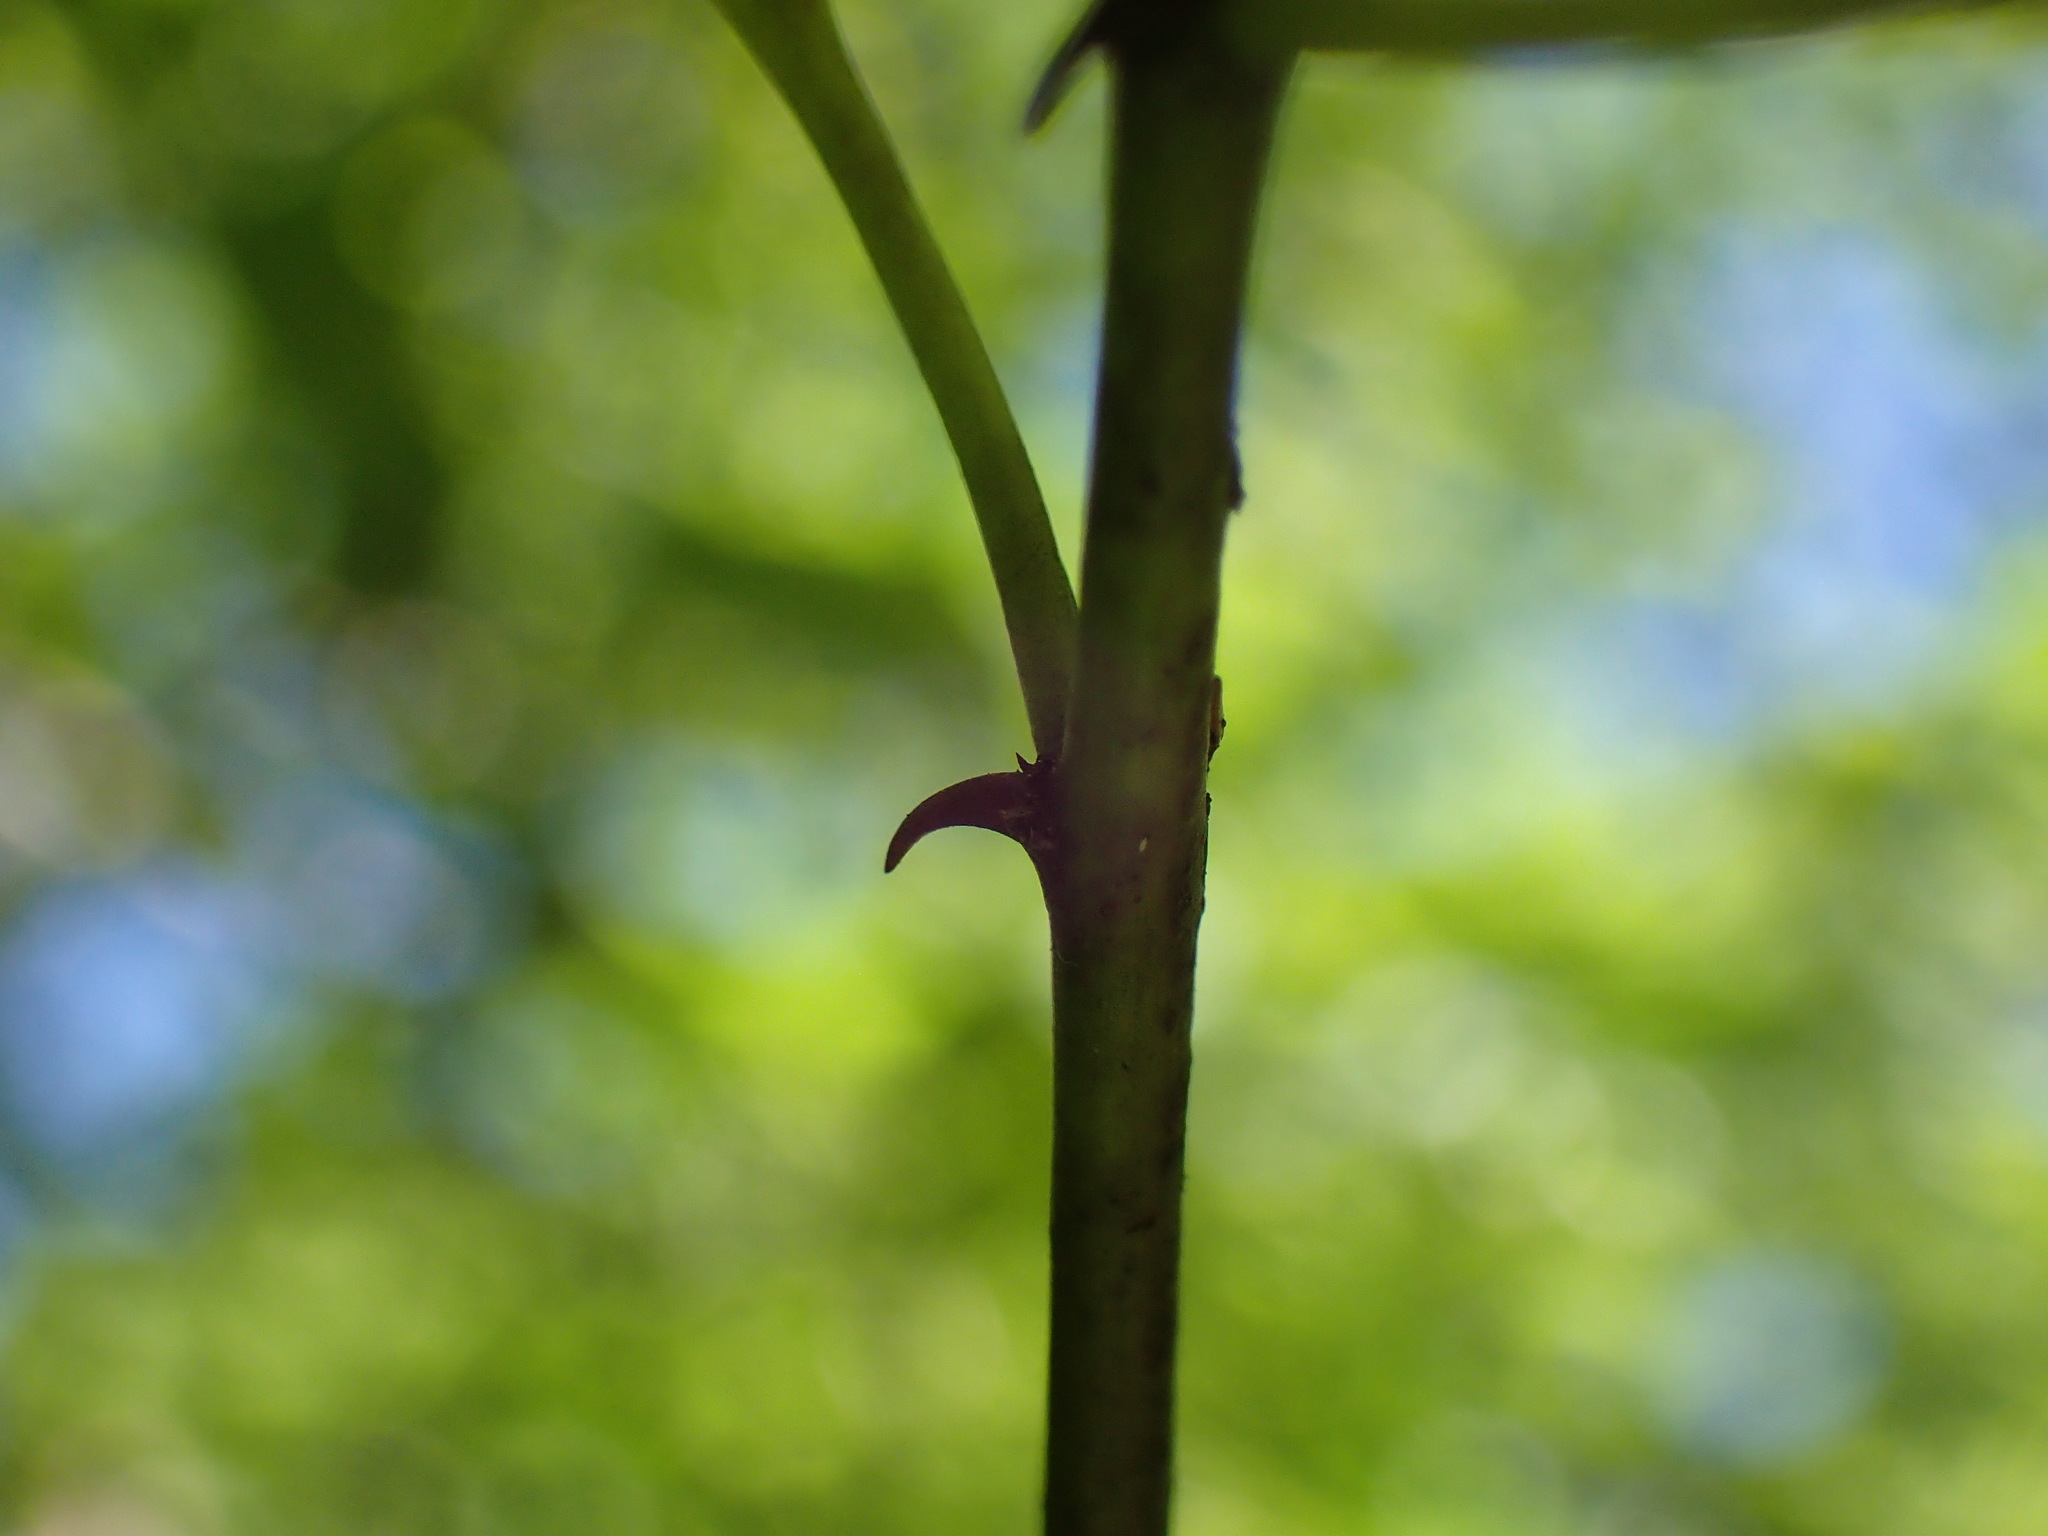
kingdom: Plantae
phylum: Tracheophyta
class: Magnoliopsida
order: Rosales
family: Rhamnaceae
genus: Ziziphus
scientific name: Ziziphus mucronata
